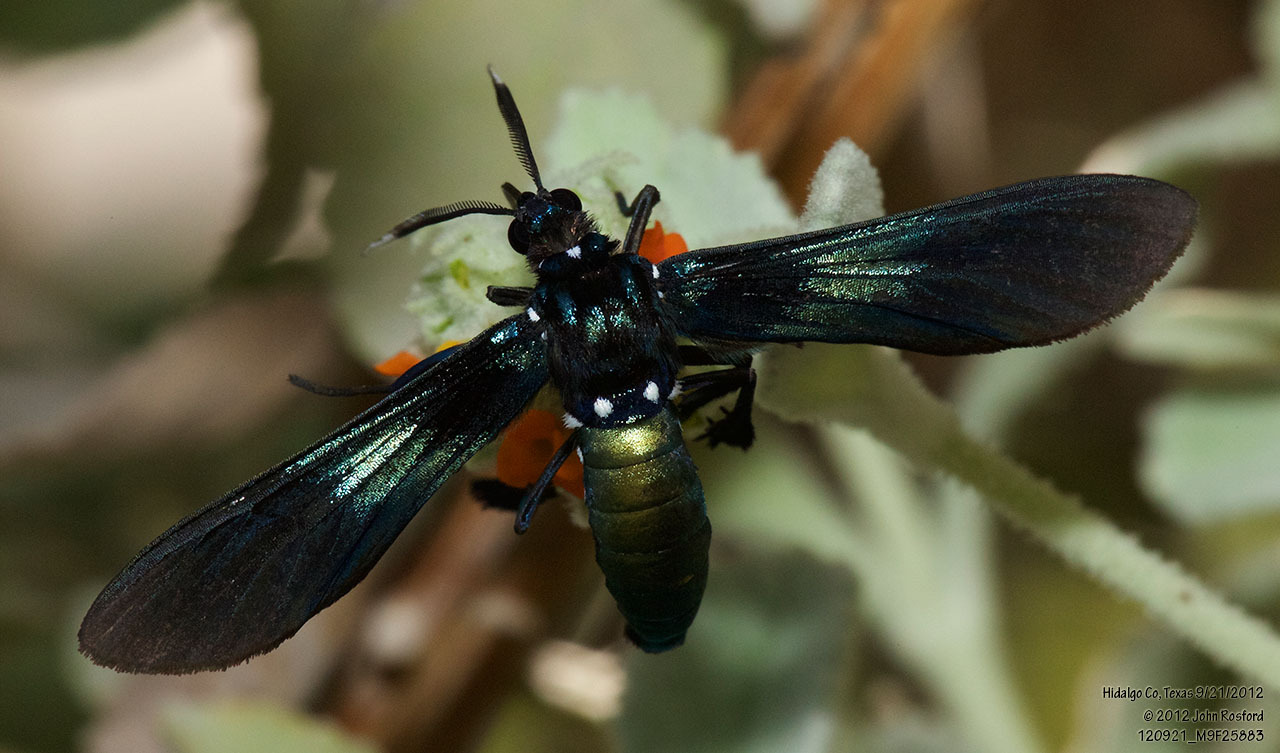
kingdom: Animalia
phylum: Arthropoda
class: Insecta
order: Lepidoptera
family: Erebidae
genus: Macrocneme
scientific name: Macrocneme chrysitis
